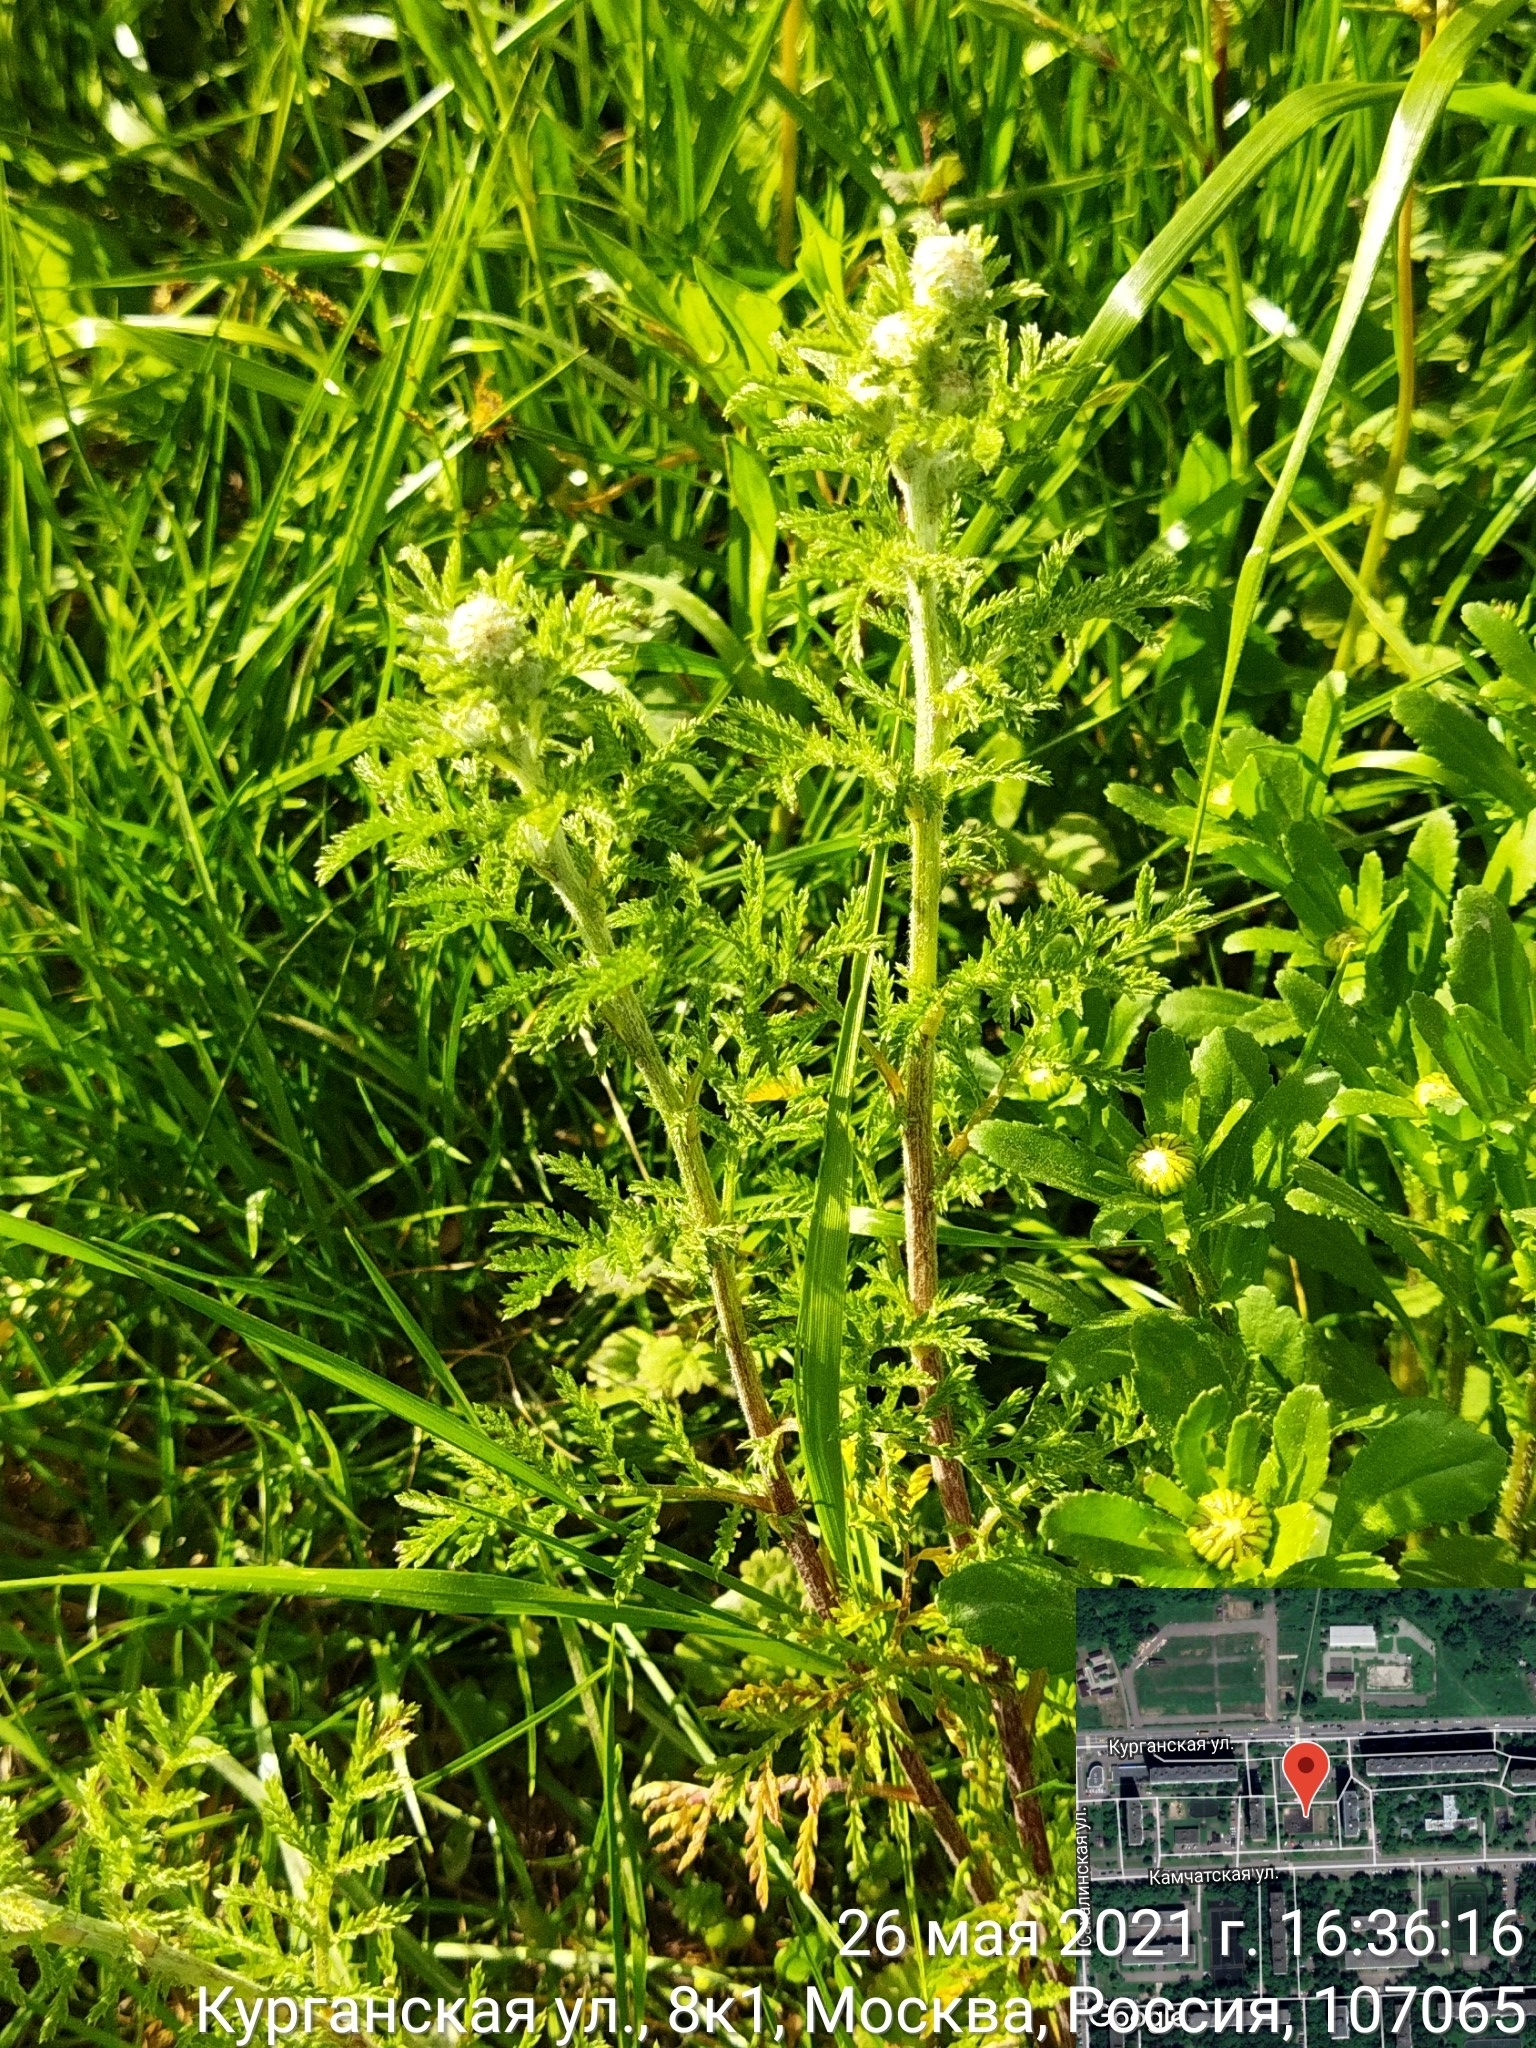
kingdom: Plantae
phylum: Tracheophyta
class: Magnoliopsida
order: Asterales
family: Asteraceae
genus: Cota
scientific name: Cota tinctoria
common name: Golden chamomile
